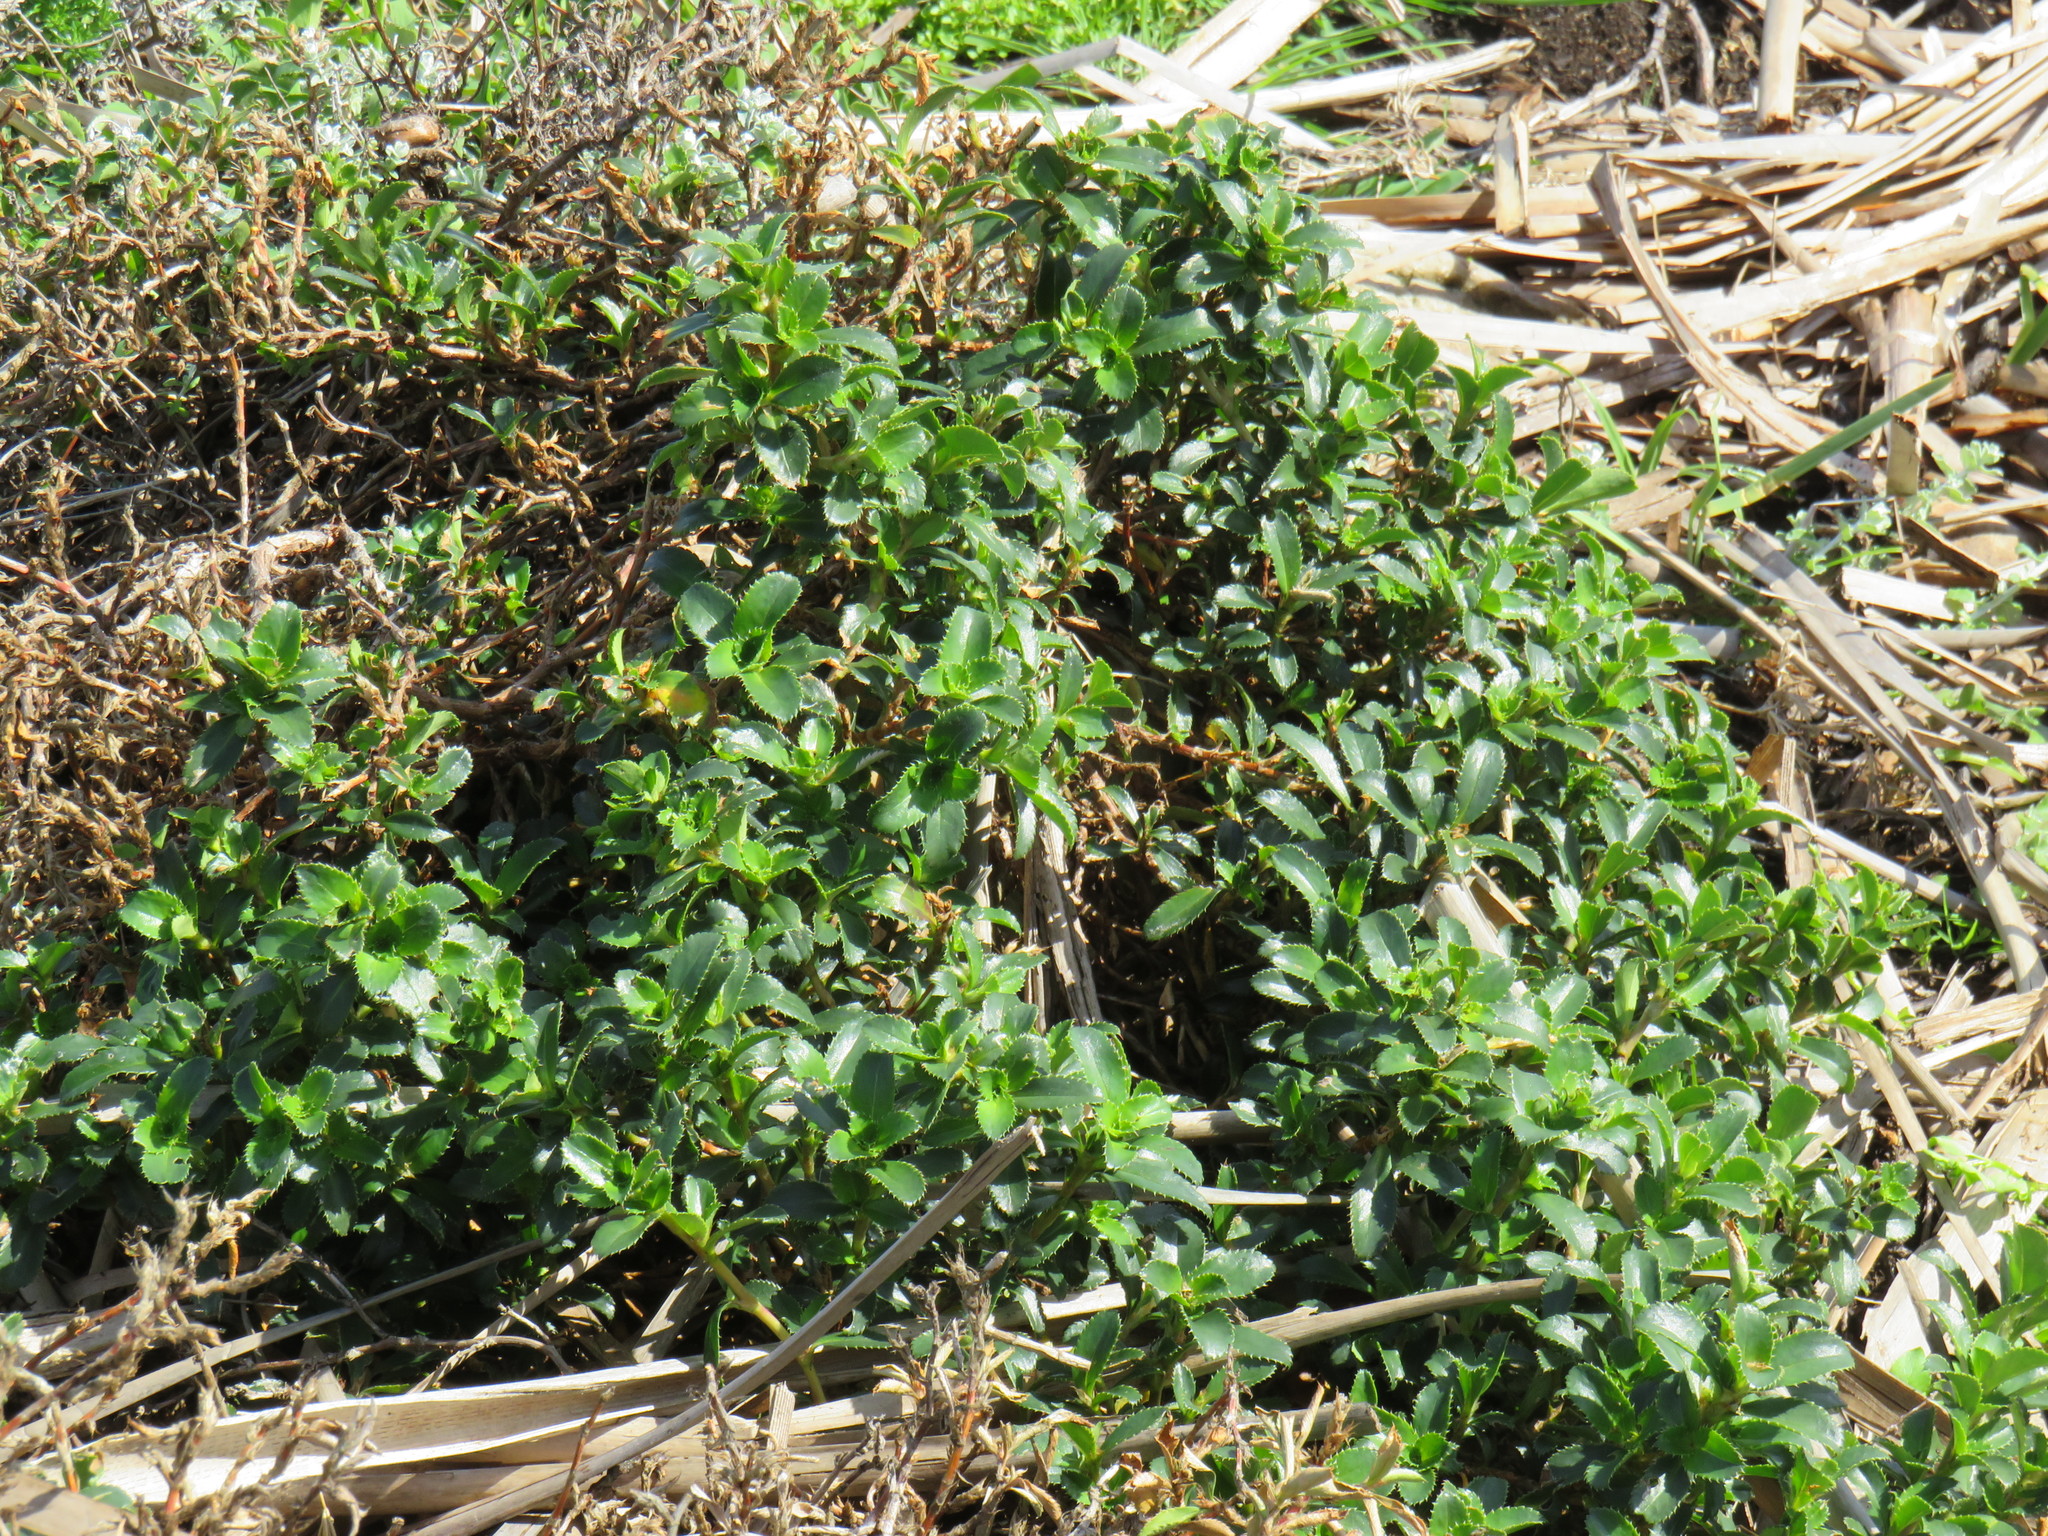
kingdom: Plantae
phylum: Tracheophyta
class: Magnoliopsida
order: Rosales
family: Rosaceae
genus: Cliffortia
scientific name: Cliffortia ferruginea
